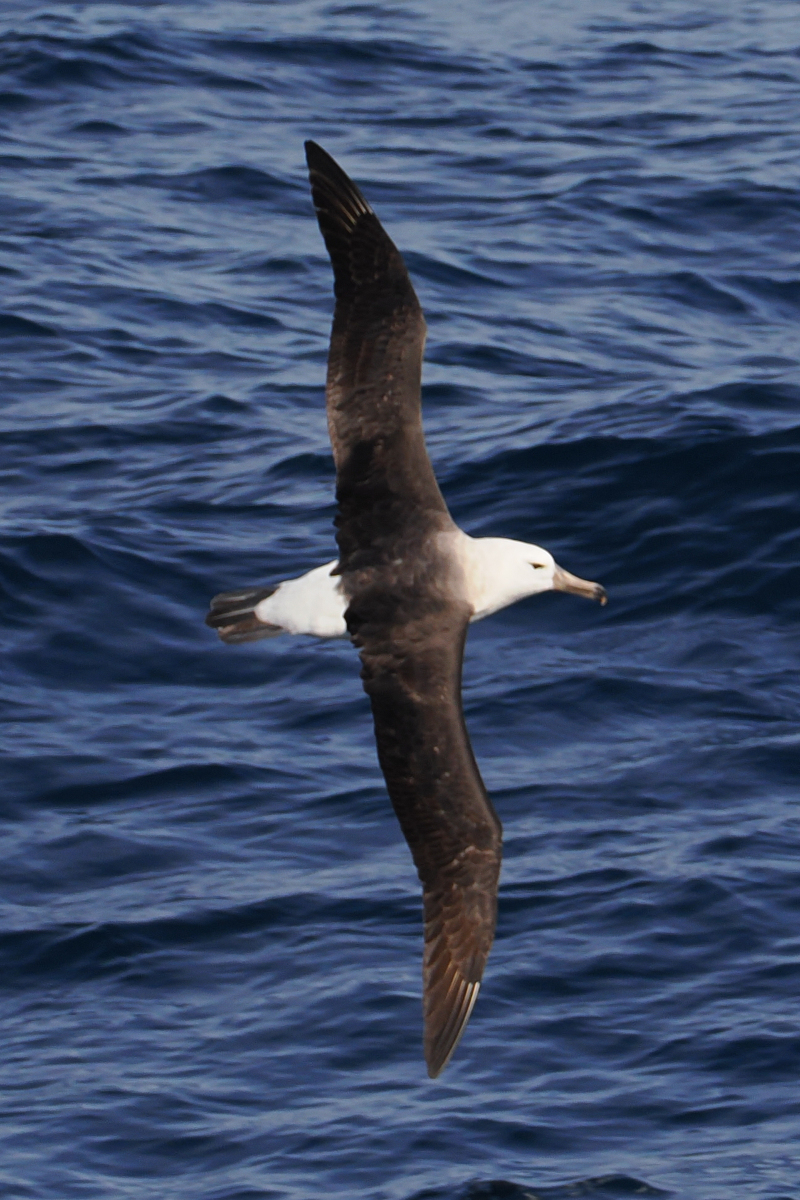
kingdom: Animalia
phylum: Chordata
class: Aves
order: Procellariiformes
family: Diomedeidae
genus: Thalassarche
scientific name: Thalassarche melanophris
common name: Black-browed albatross
